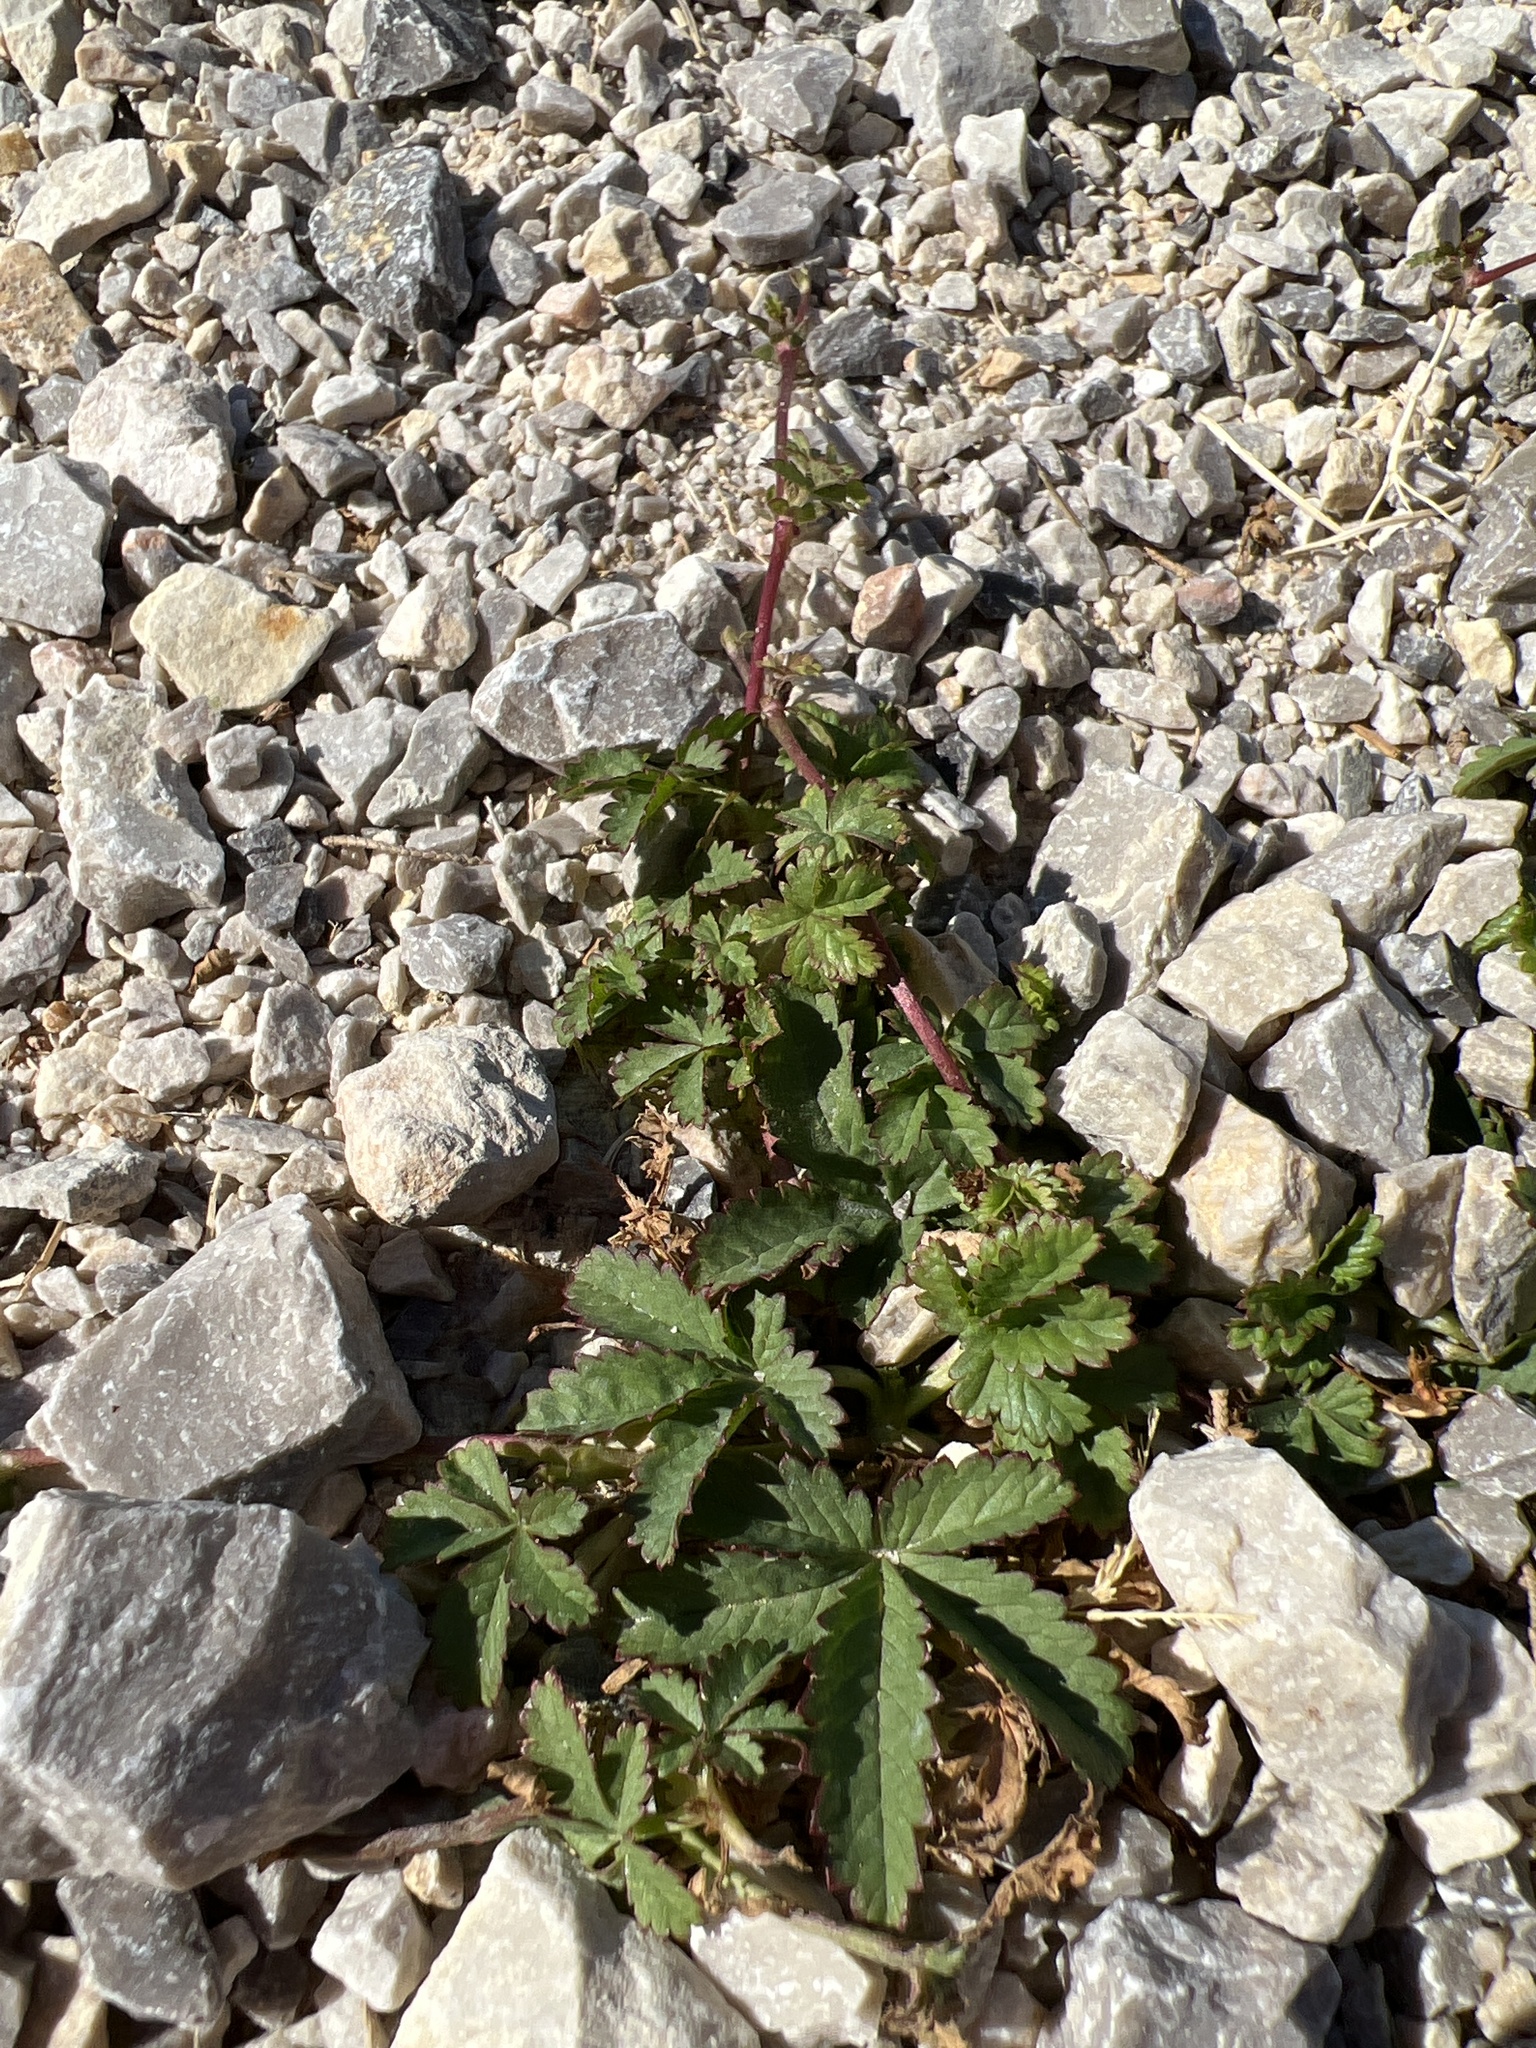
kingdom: Plantae
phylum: Tracheophyta
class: Magnoliopsida
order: Rosales
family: Rosaceae
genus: Potentilla
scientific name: Potentilla reptans
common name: Creeping cinquefoil
